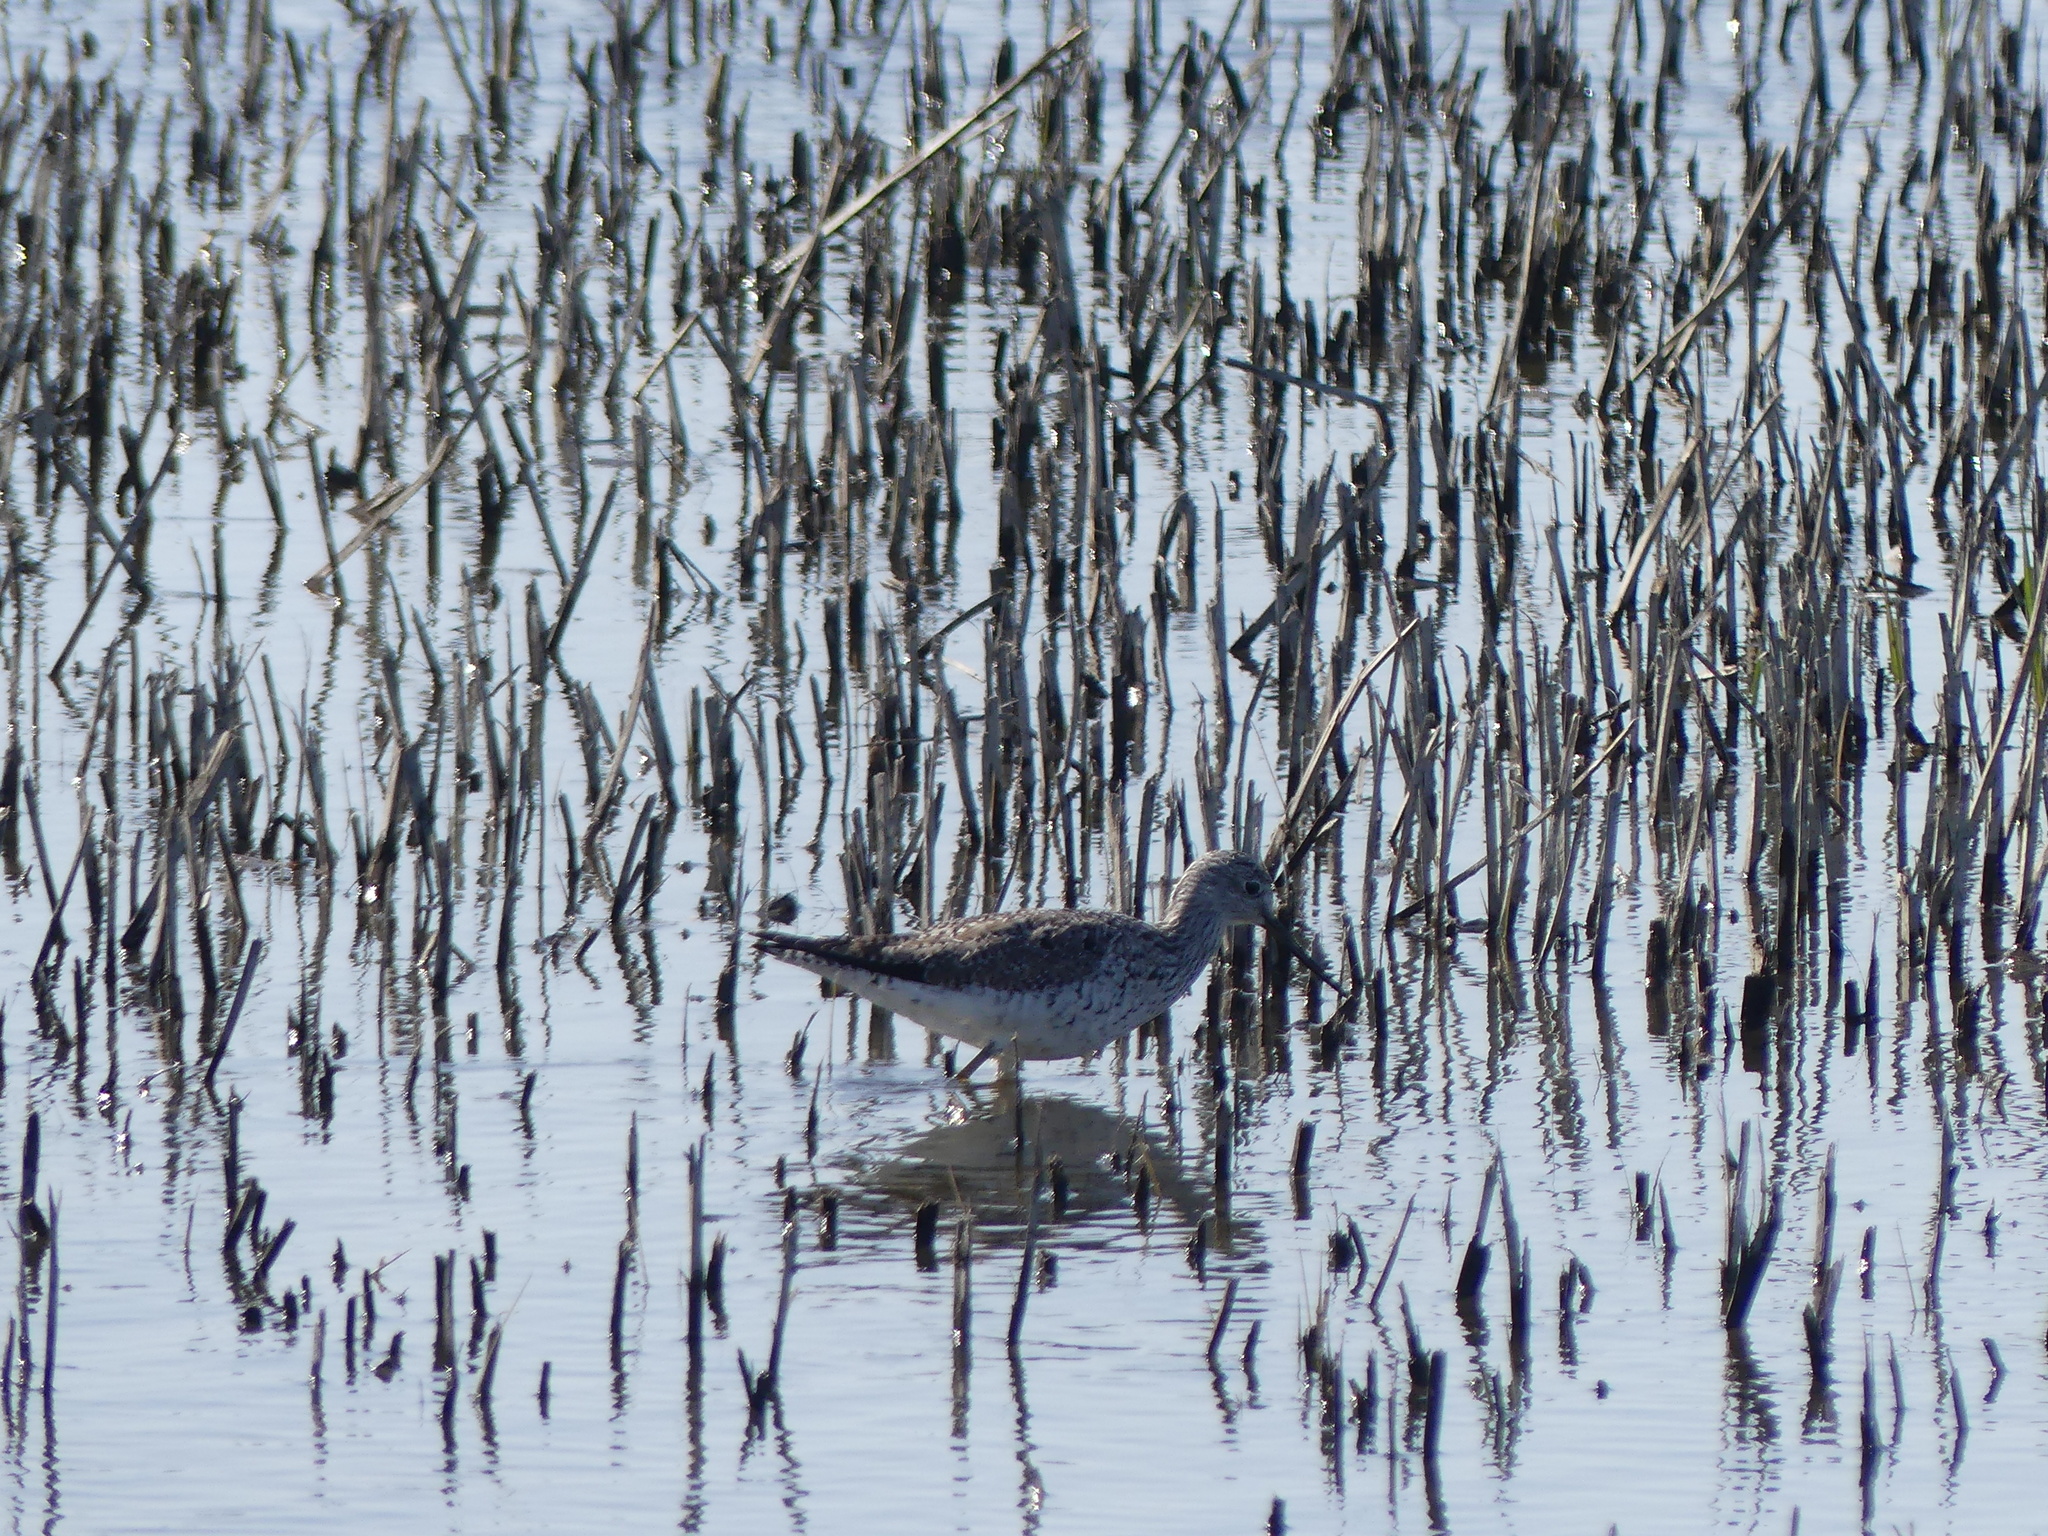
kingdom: Animalia
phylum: Chordata
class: Aves
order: Charadriiformes
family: Scolopacidae
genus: Tringa
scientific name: Tringa melanoleuca
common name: Greater yellowlegs
